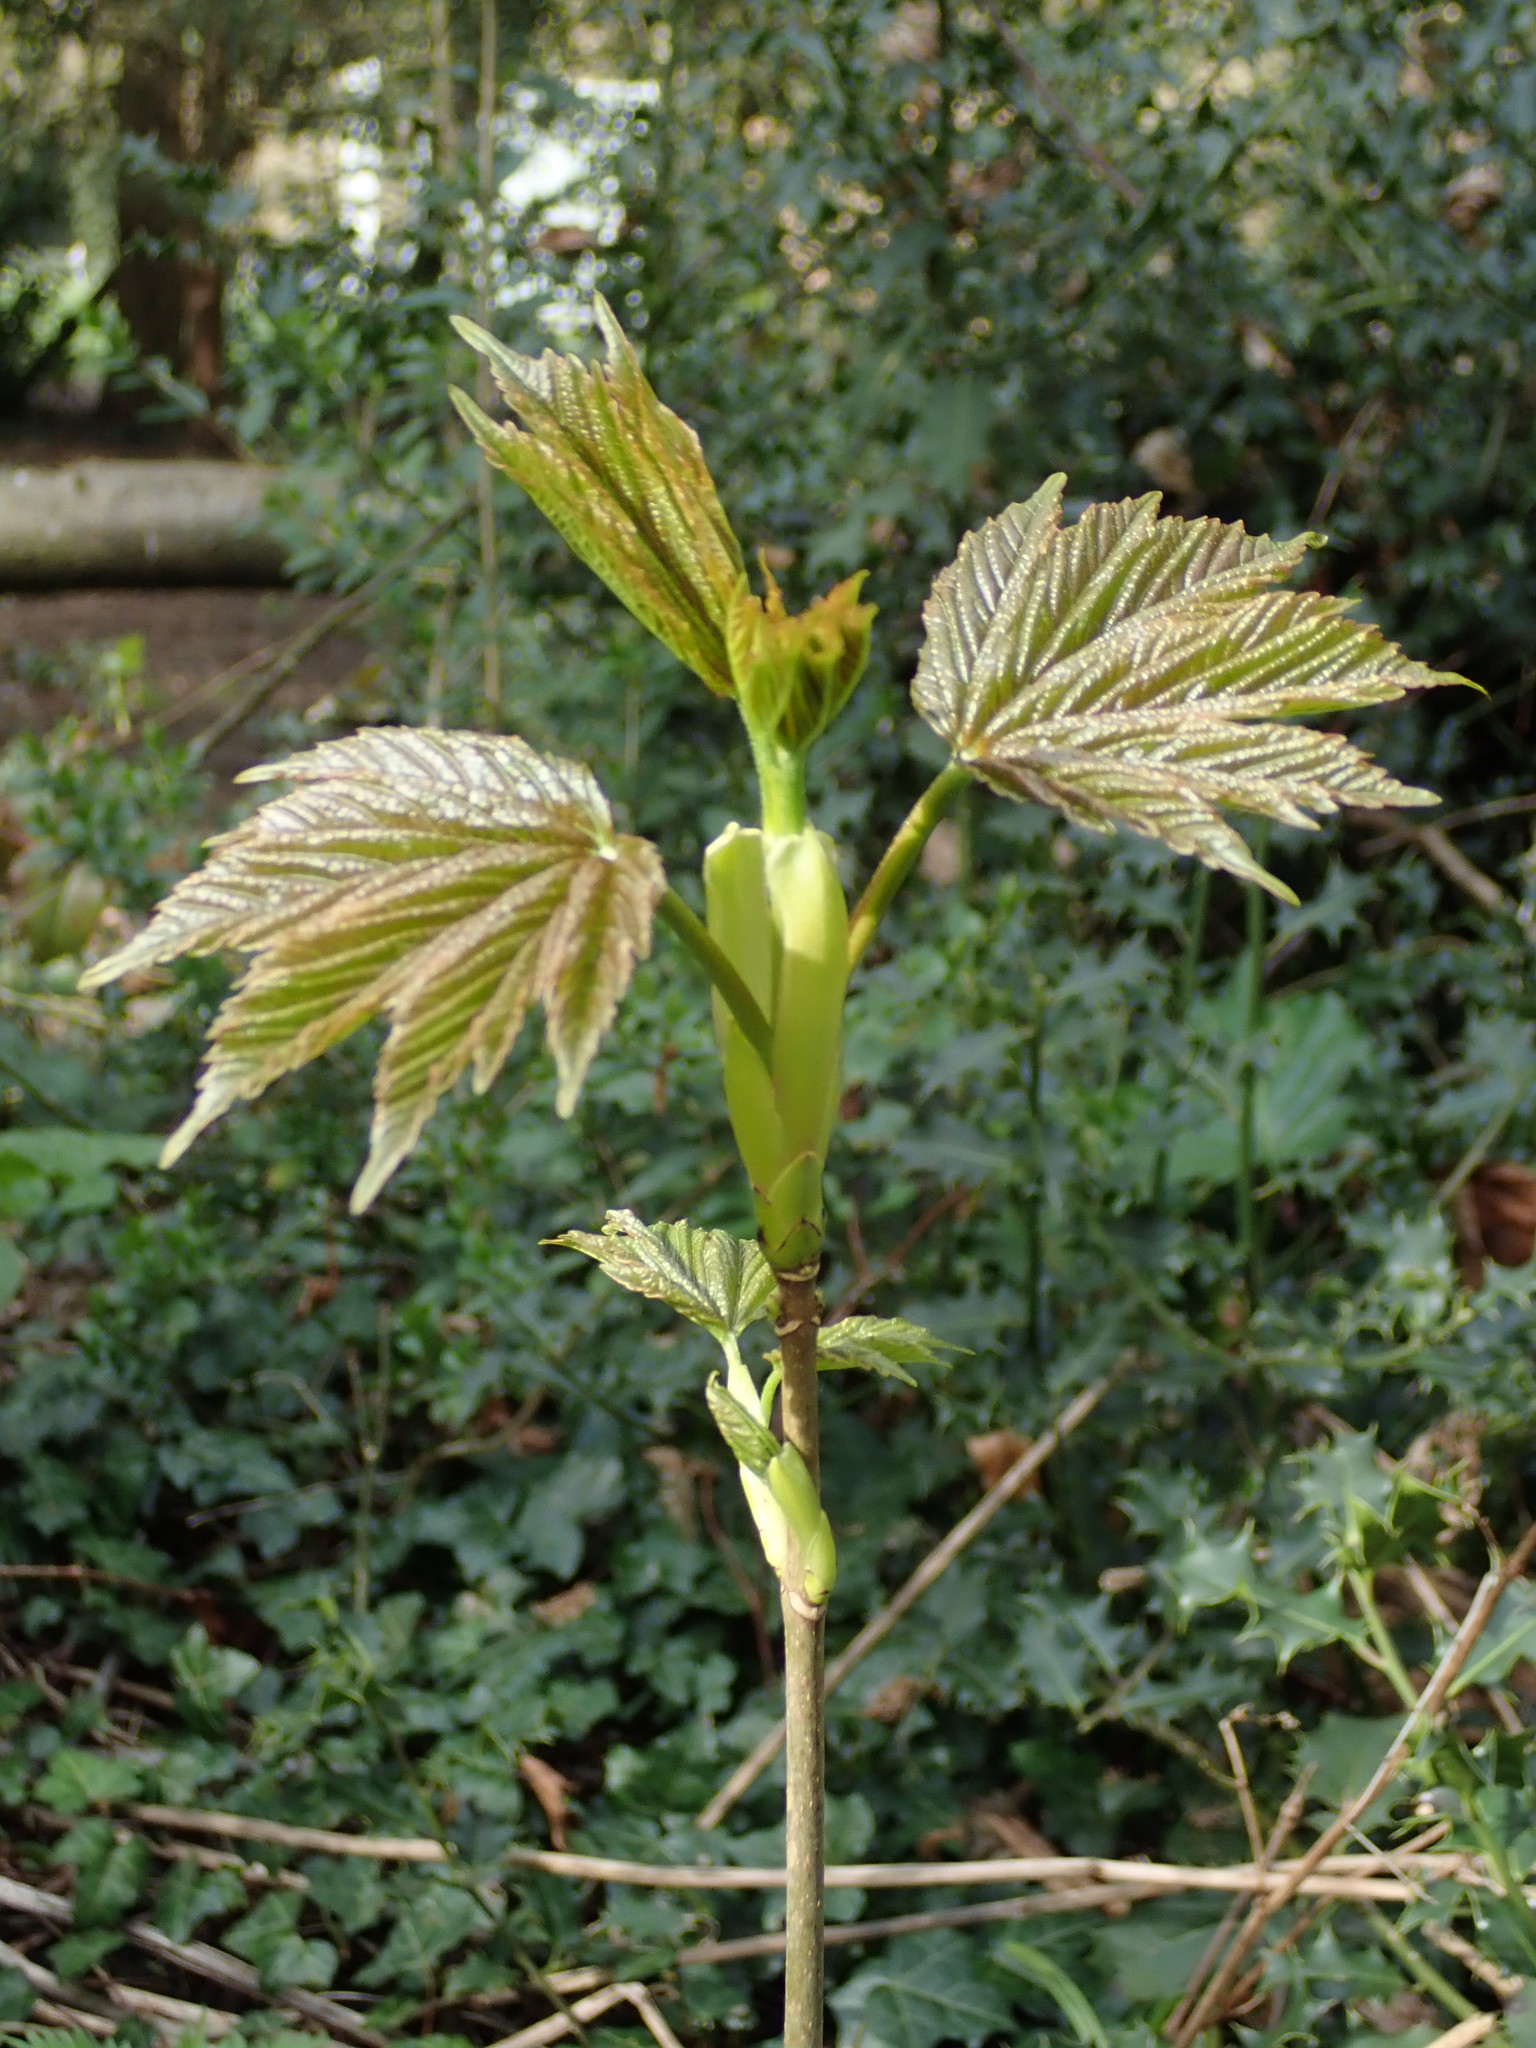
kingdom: Plantae
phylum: Tracheophyta
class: Magnoliopsida
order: Sapindales
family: Sapindaceae
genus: Acer
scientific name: Acer pseudoplatanus
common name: Sycamore
